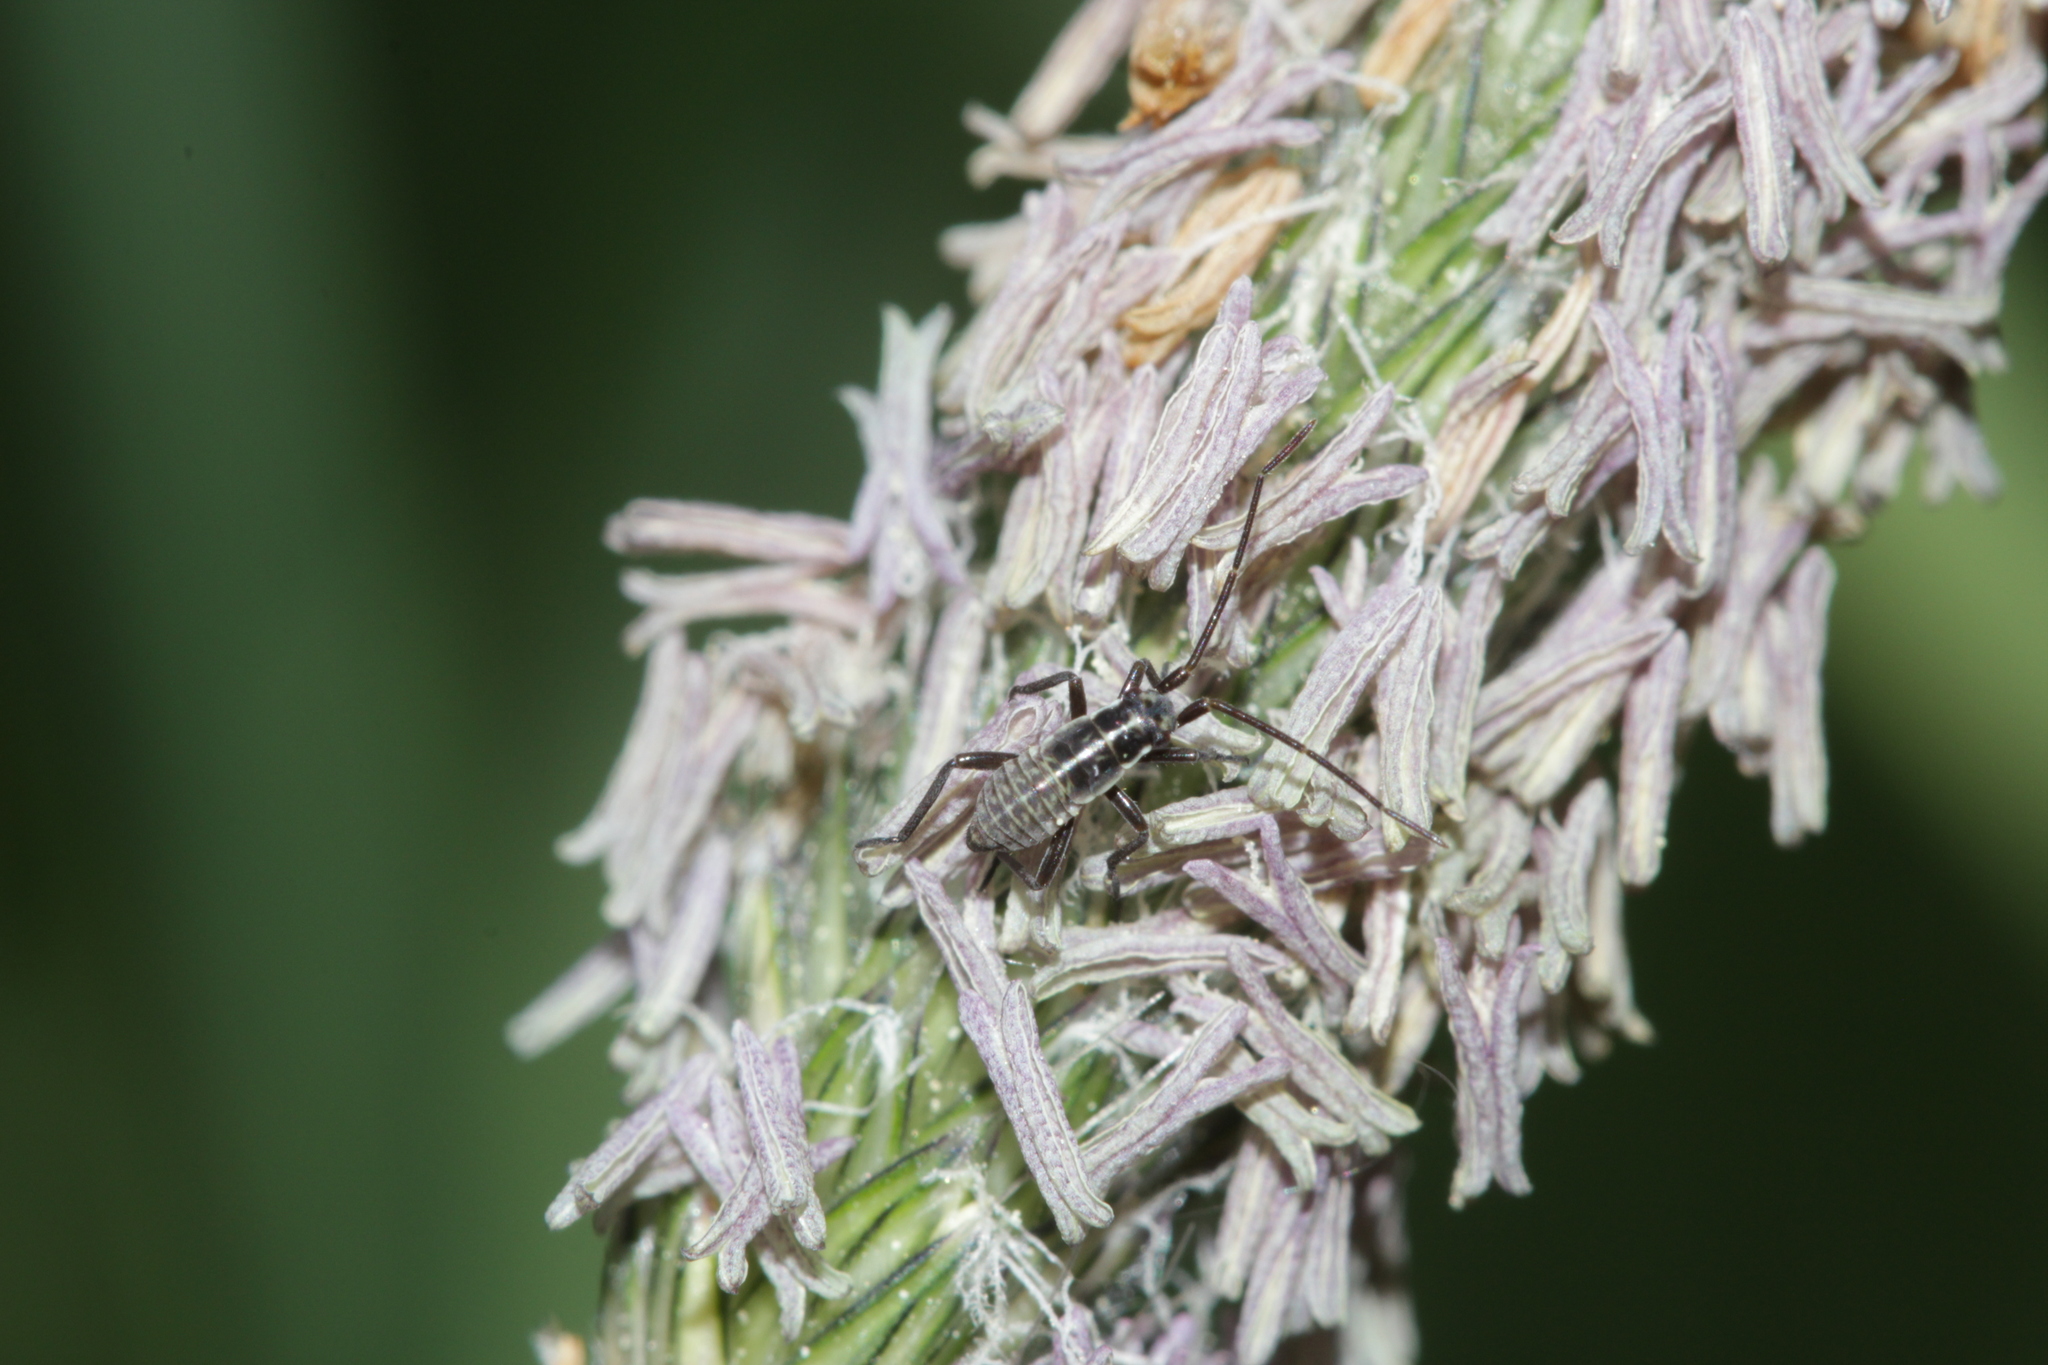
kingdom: Animalia
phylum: Arthropoda
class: Insecta
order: Hemiptera
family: Miridae
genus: Leptopterna
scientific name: Leptopterna dolabrata
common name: Meadow plant bug
